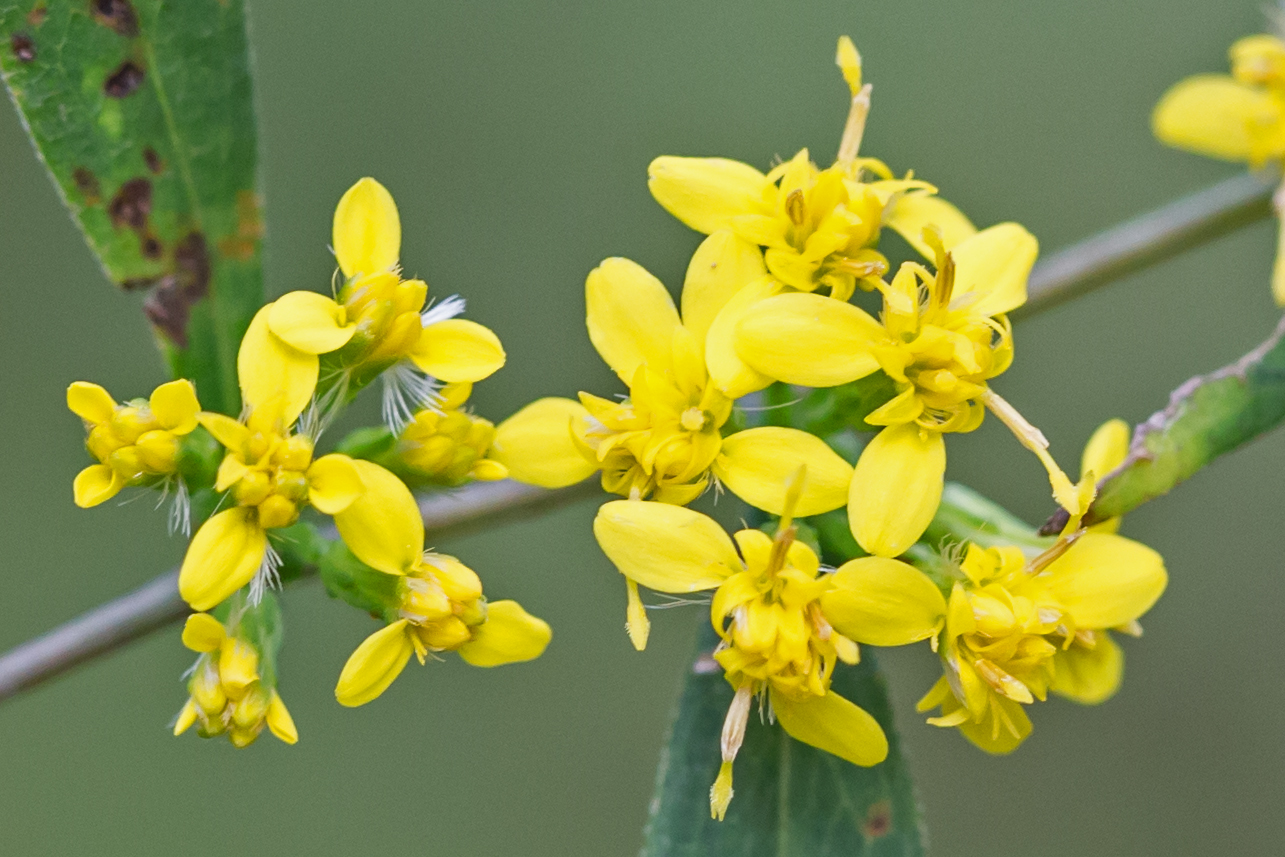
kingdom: Plantae
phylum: Tracheophyta
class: Magnoliopsida
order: Asterales
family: Asteraceae
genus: Solidago
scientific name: Solidago caesia
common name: Woodland goldenrod
